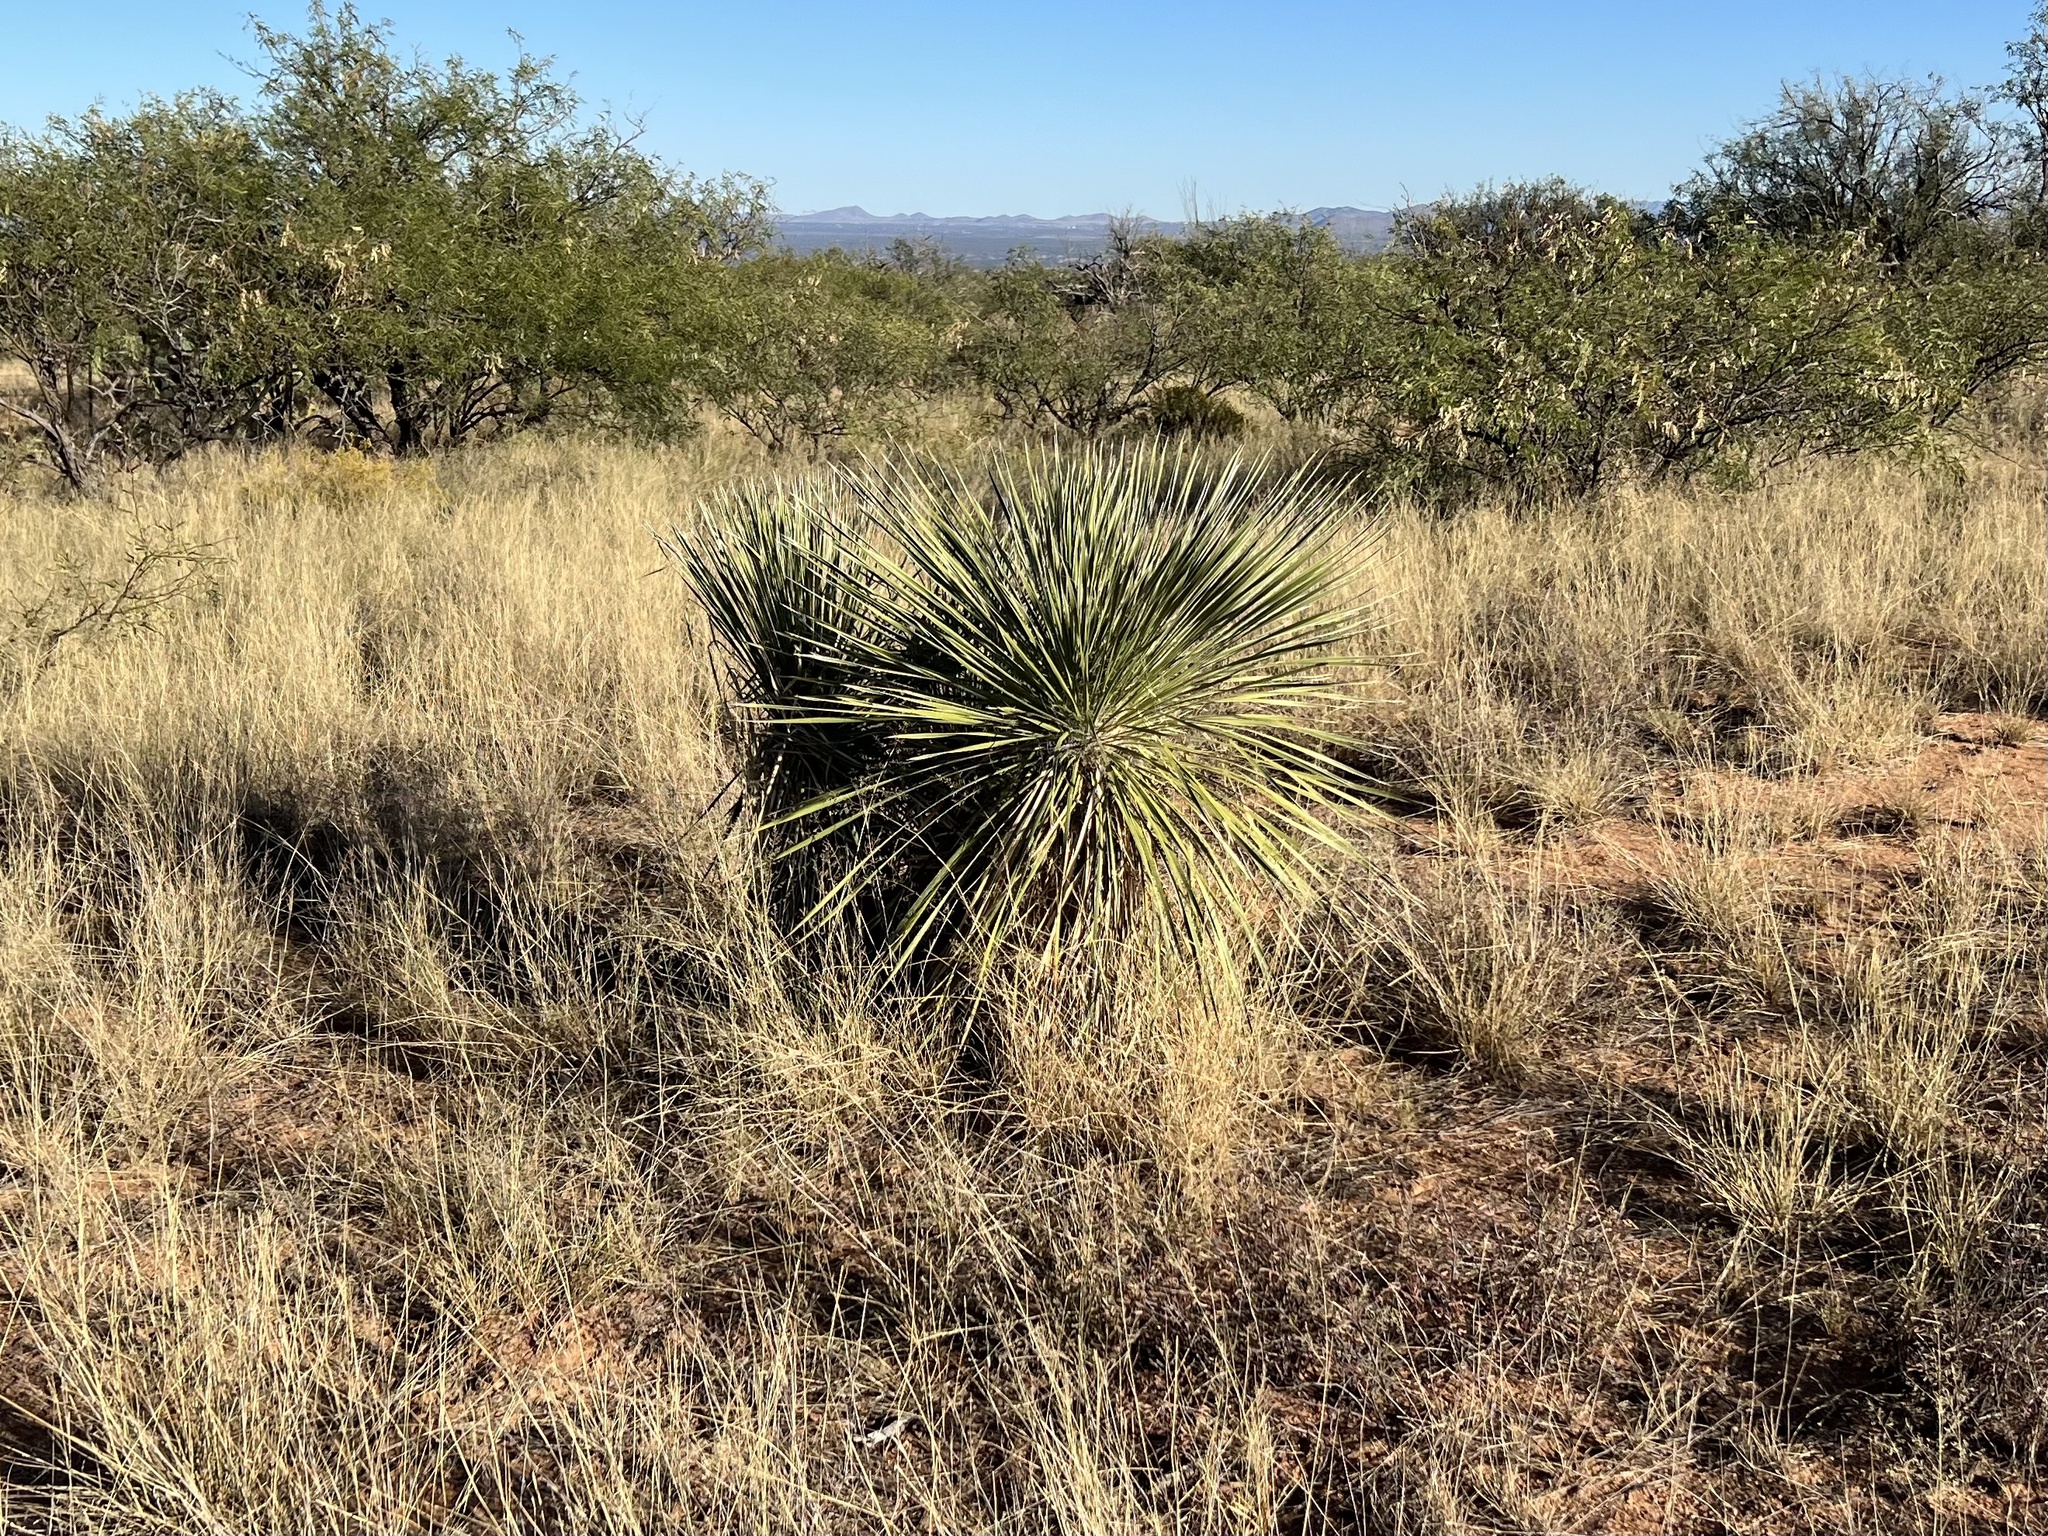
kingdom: Plantae
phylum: Tracheophyta
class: Liliopsida
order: Asparagales
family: Asparagaceae
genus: Yucca
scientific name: Yucca elata
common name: Palmella
